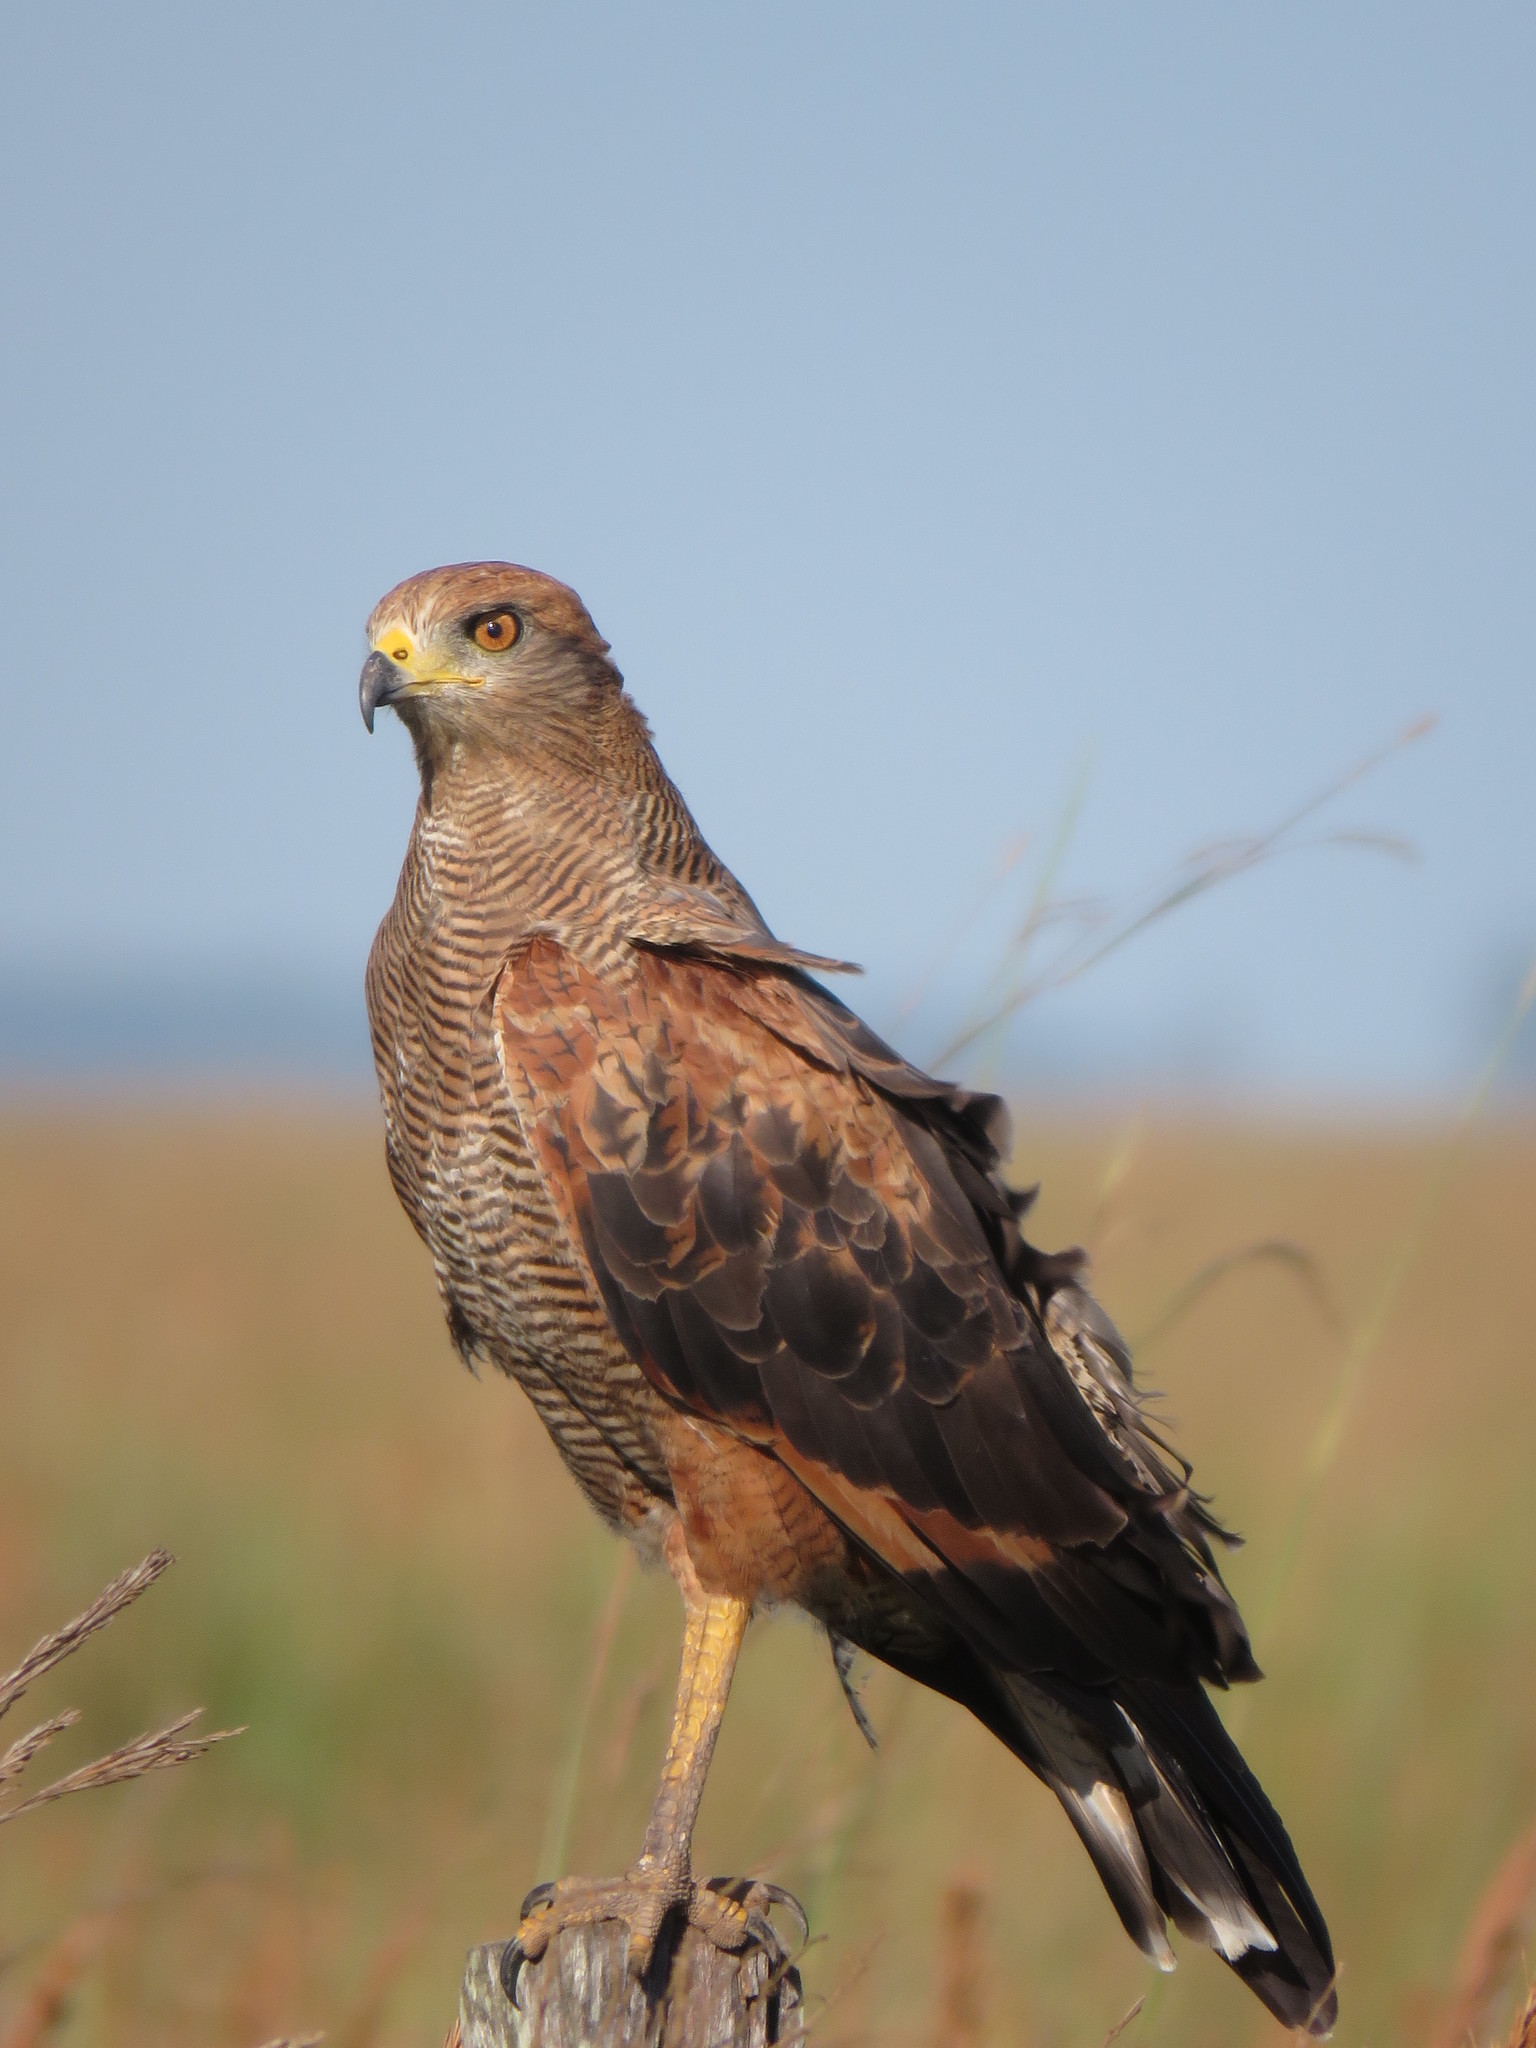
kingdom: Animalia
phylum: Chordata
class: Aves
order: Accipitriformes
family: Accipitridae
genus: Buteogallus
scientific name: Buteogallus meridionalis
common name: Savanna hawk
